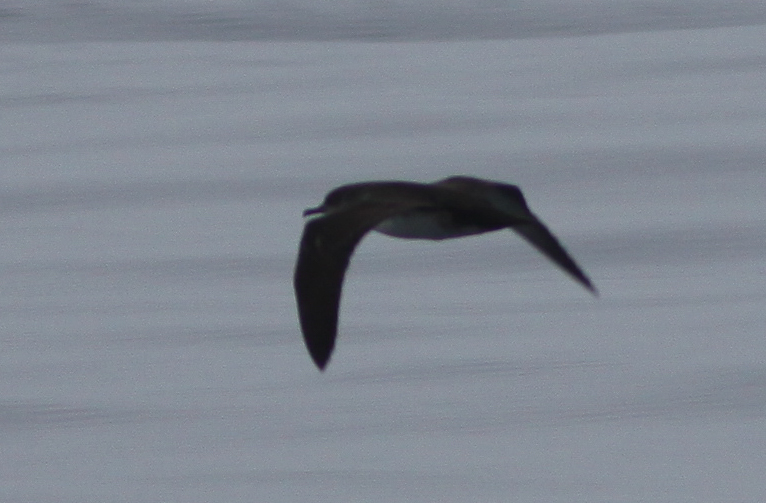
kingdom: Animalia
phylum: Chordata
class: Aves
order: Procellariiformes
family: Procellariidae
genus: Puffinus
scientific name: Puffinus opisthomelas
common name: Black-vented shearwater
